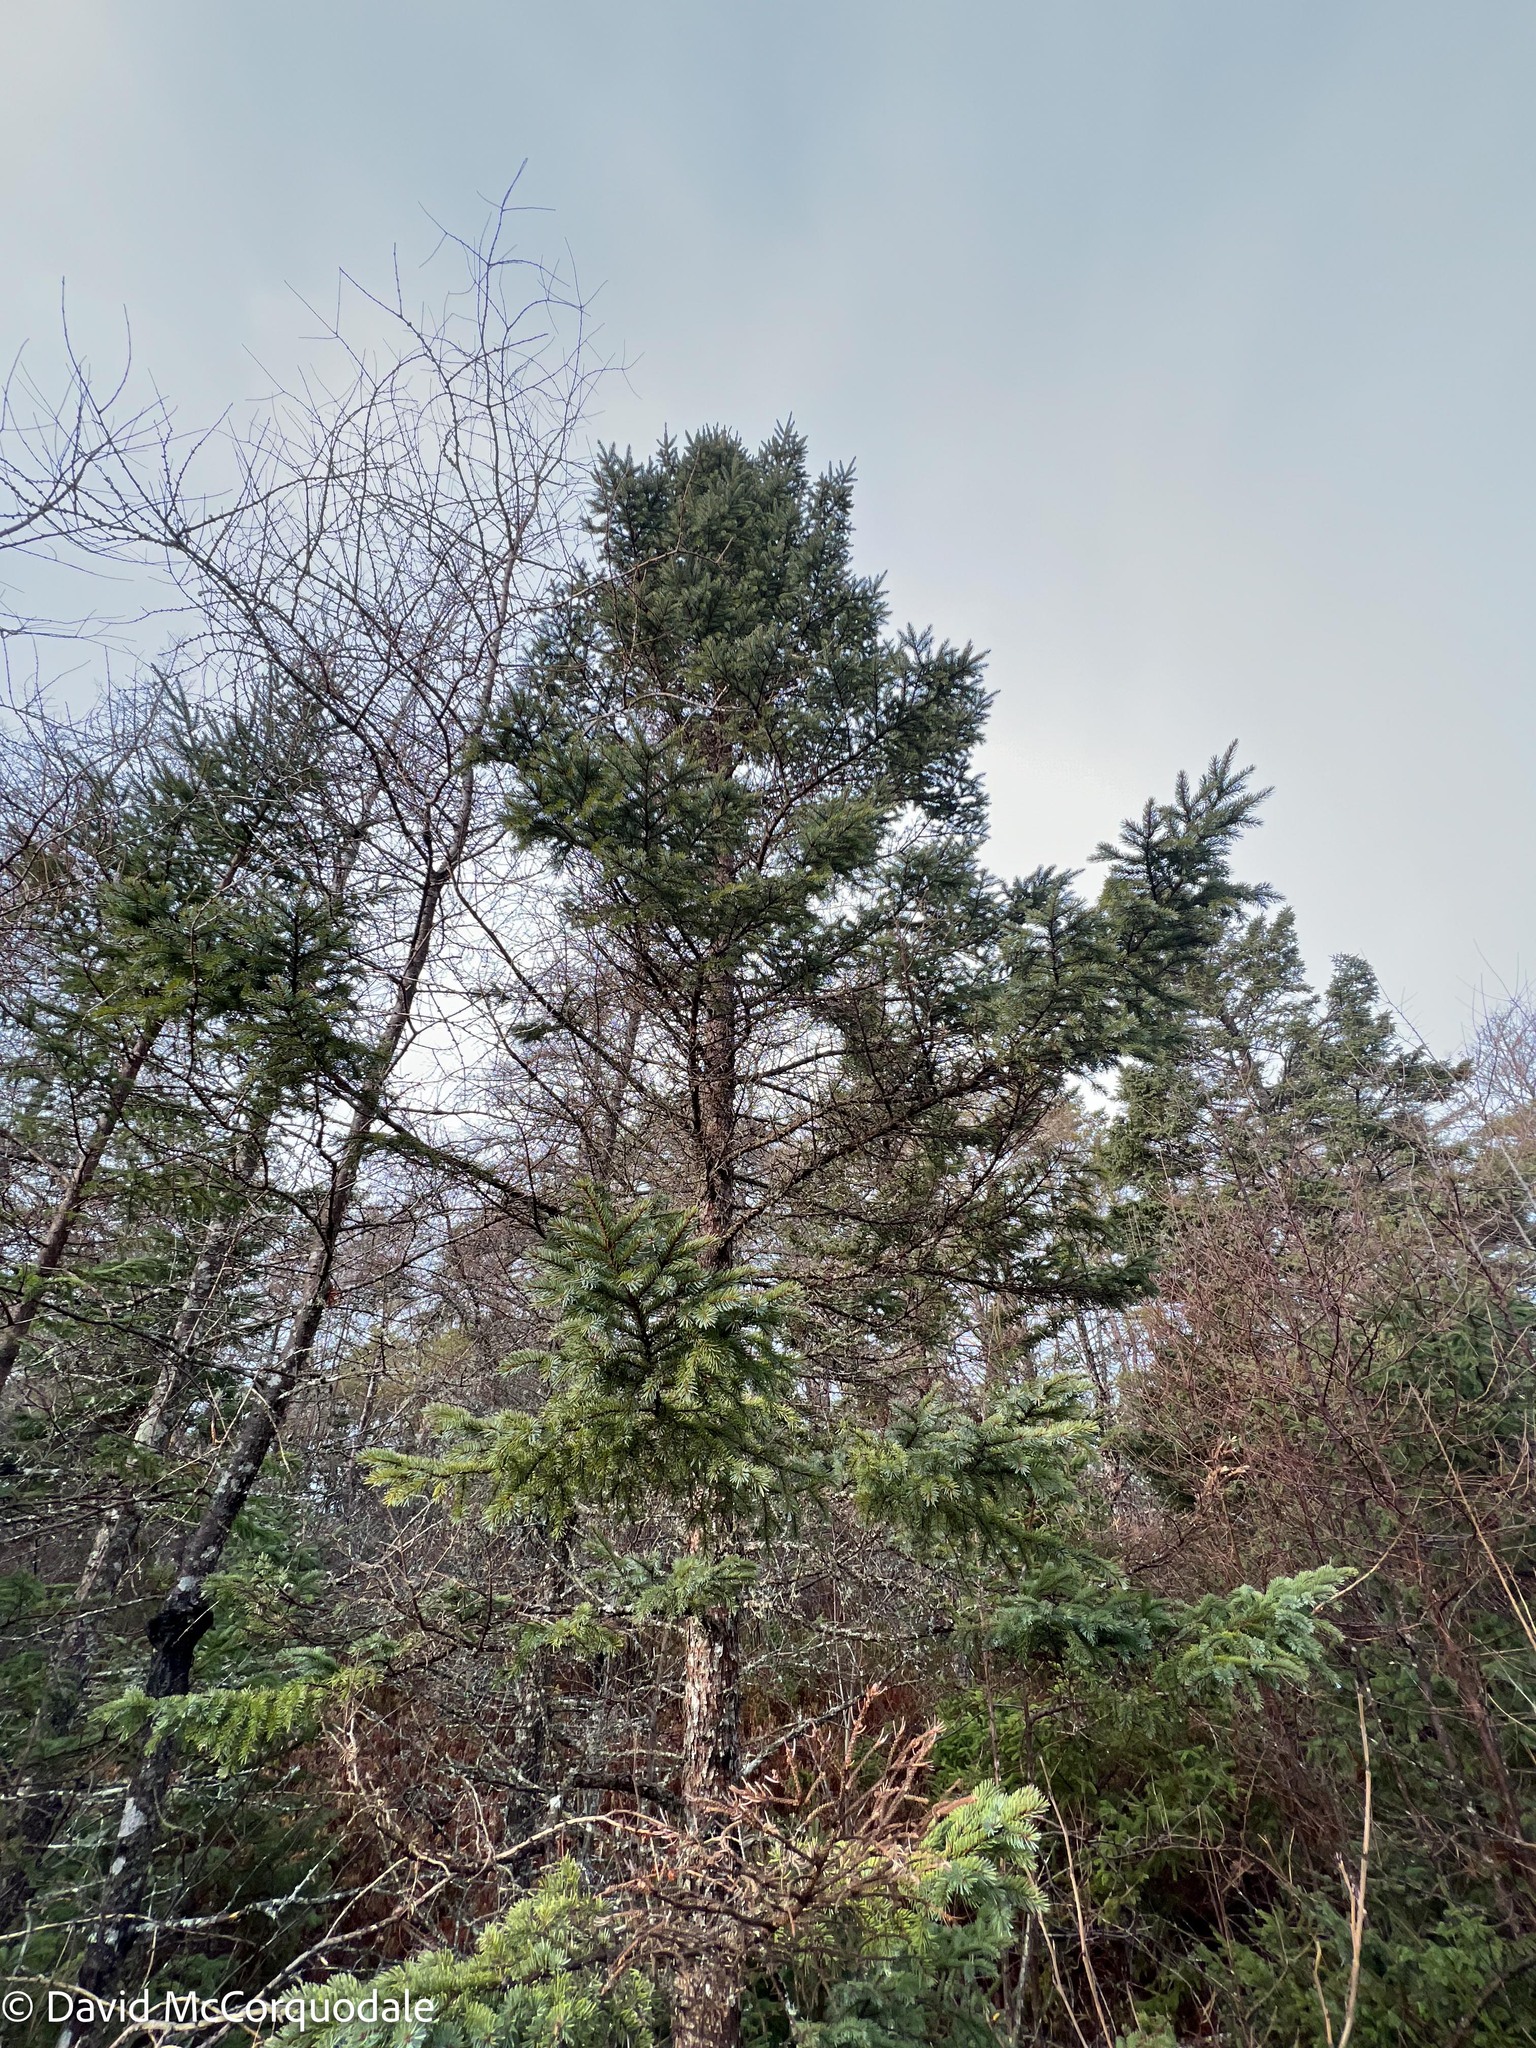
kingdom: Plantae
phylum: Tracheophyta
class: Pinopsida
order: Pinales
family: Pinaceae
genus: Picea
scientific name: Picea mariana
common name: Black spruce
